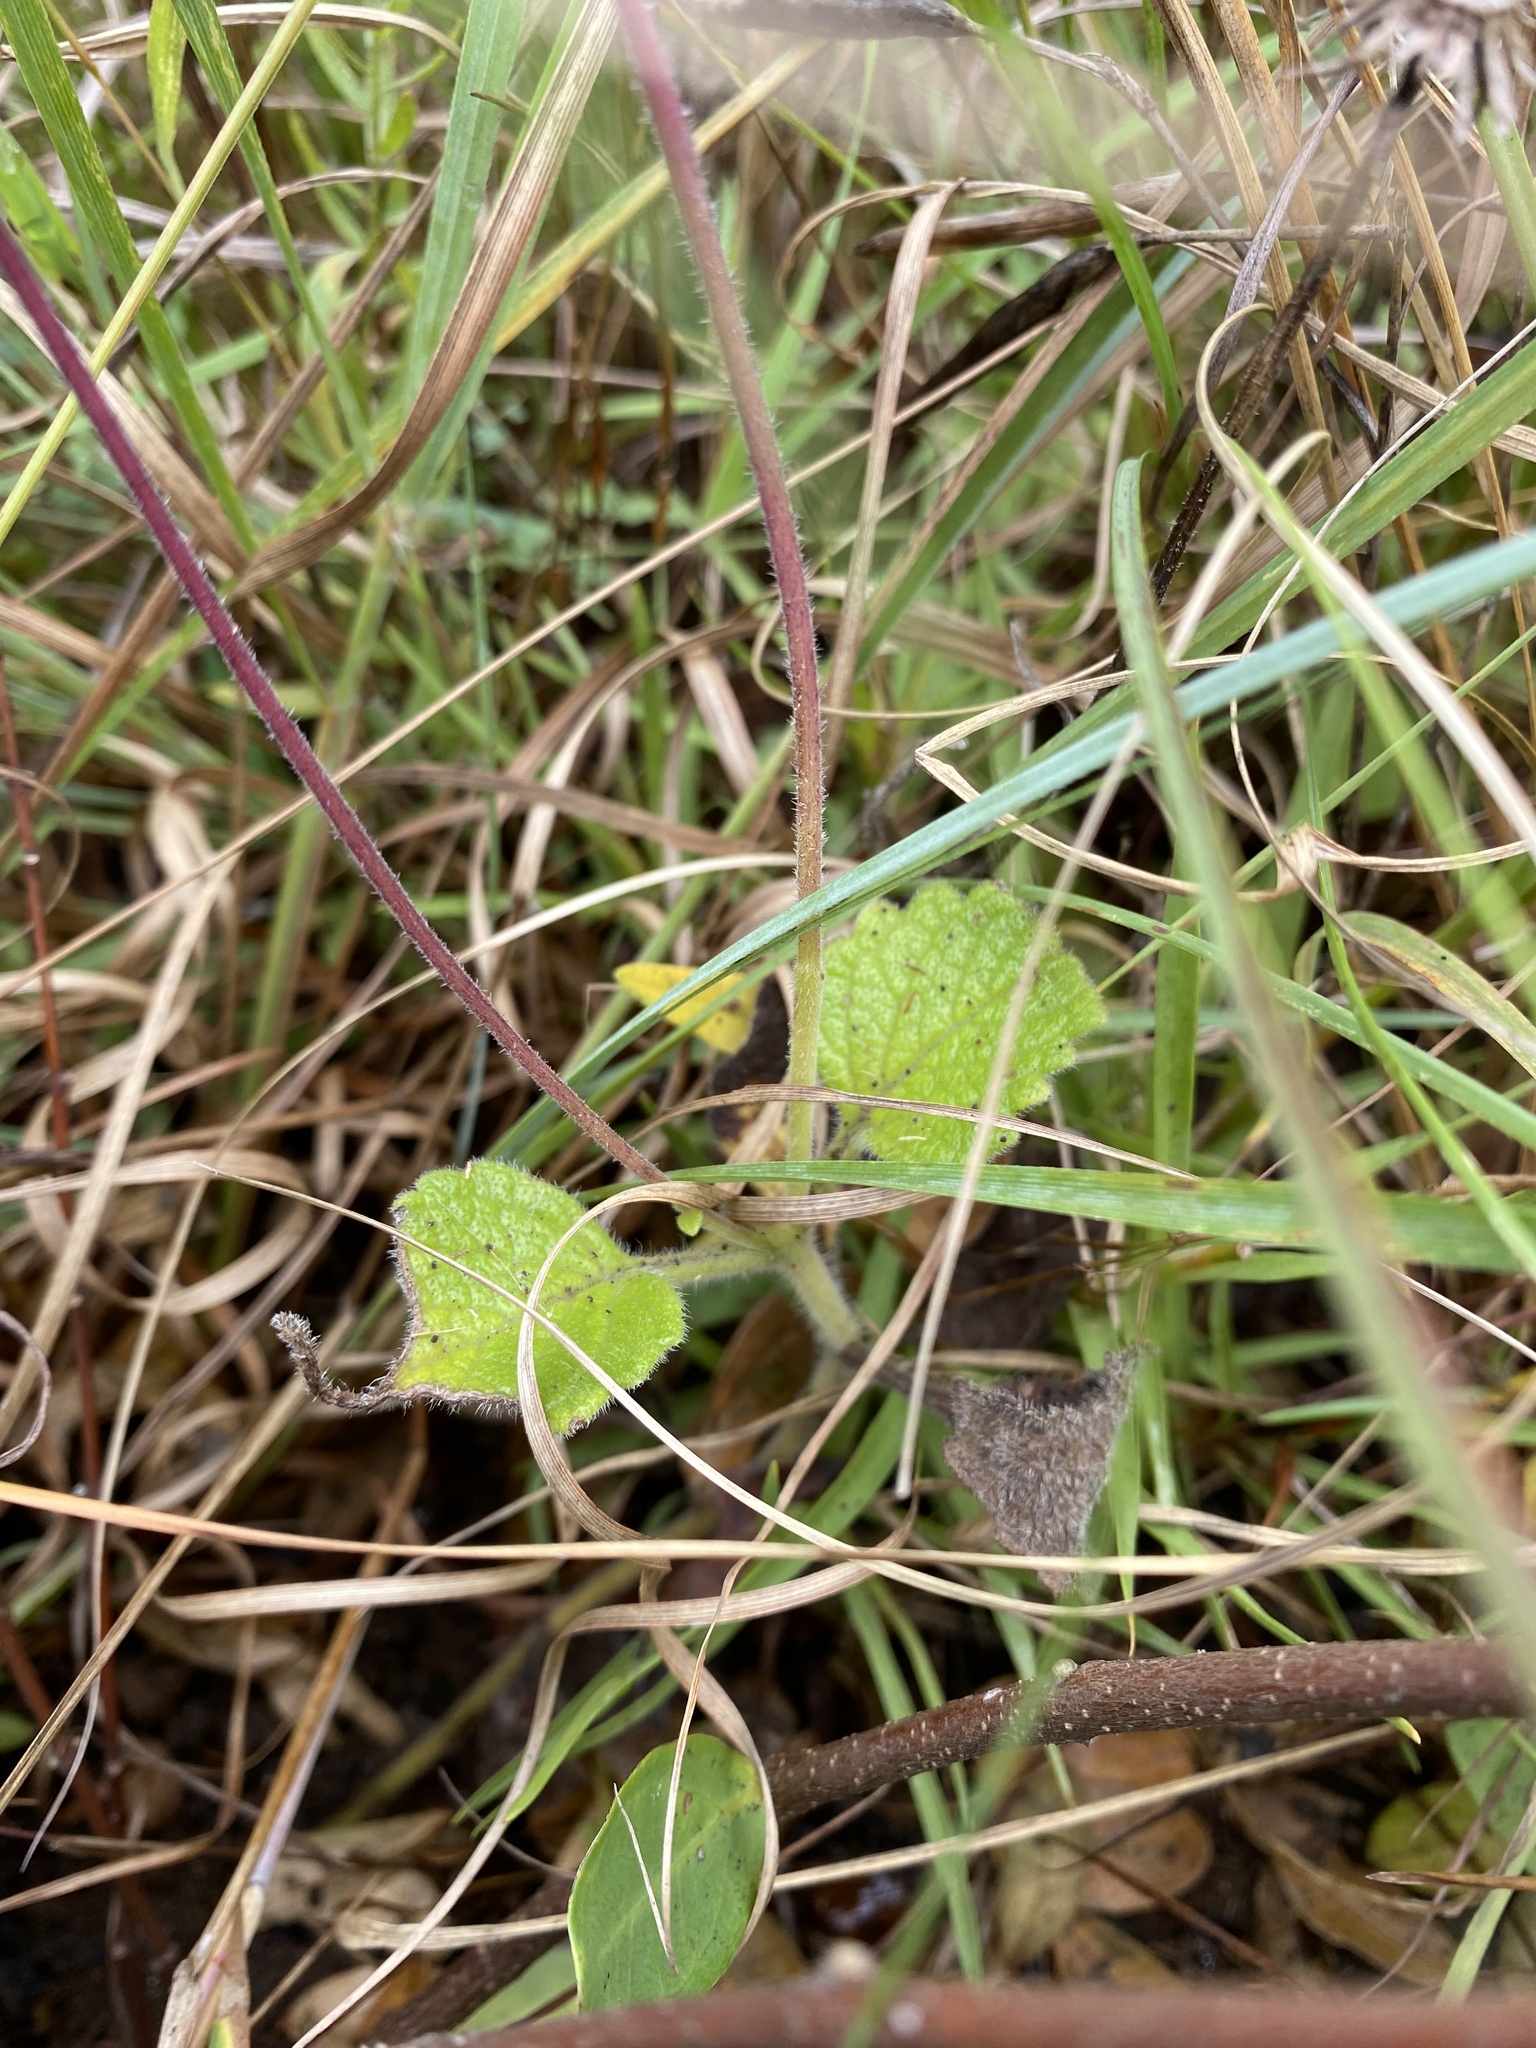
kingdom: Plantae
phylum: Tracheophyta
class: Magnoliopsida
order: Lamiales
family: Lamiaceae
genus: Equilabium
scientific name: Equilabium petiolare
